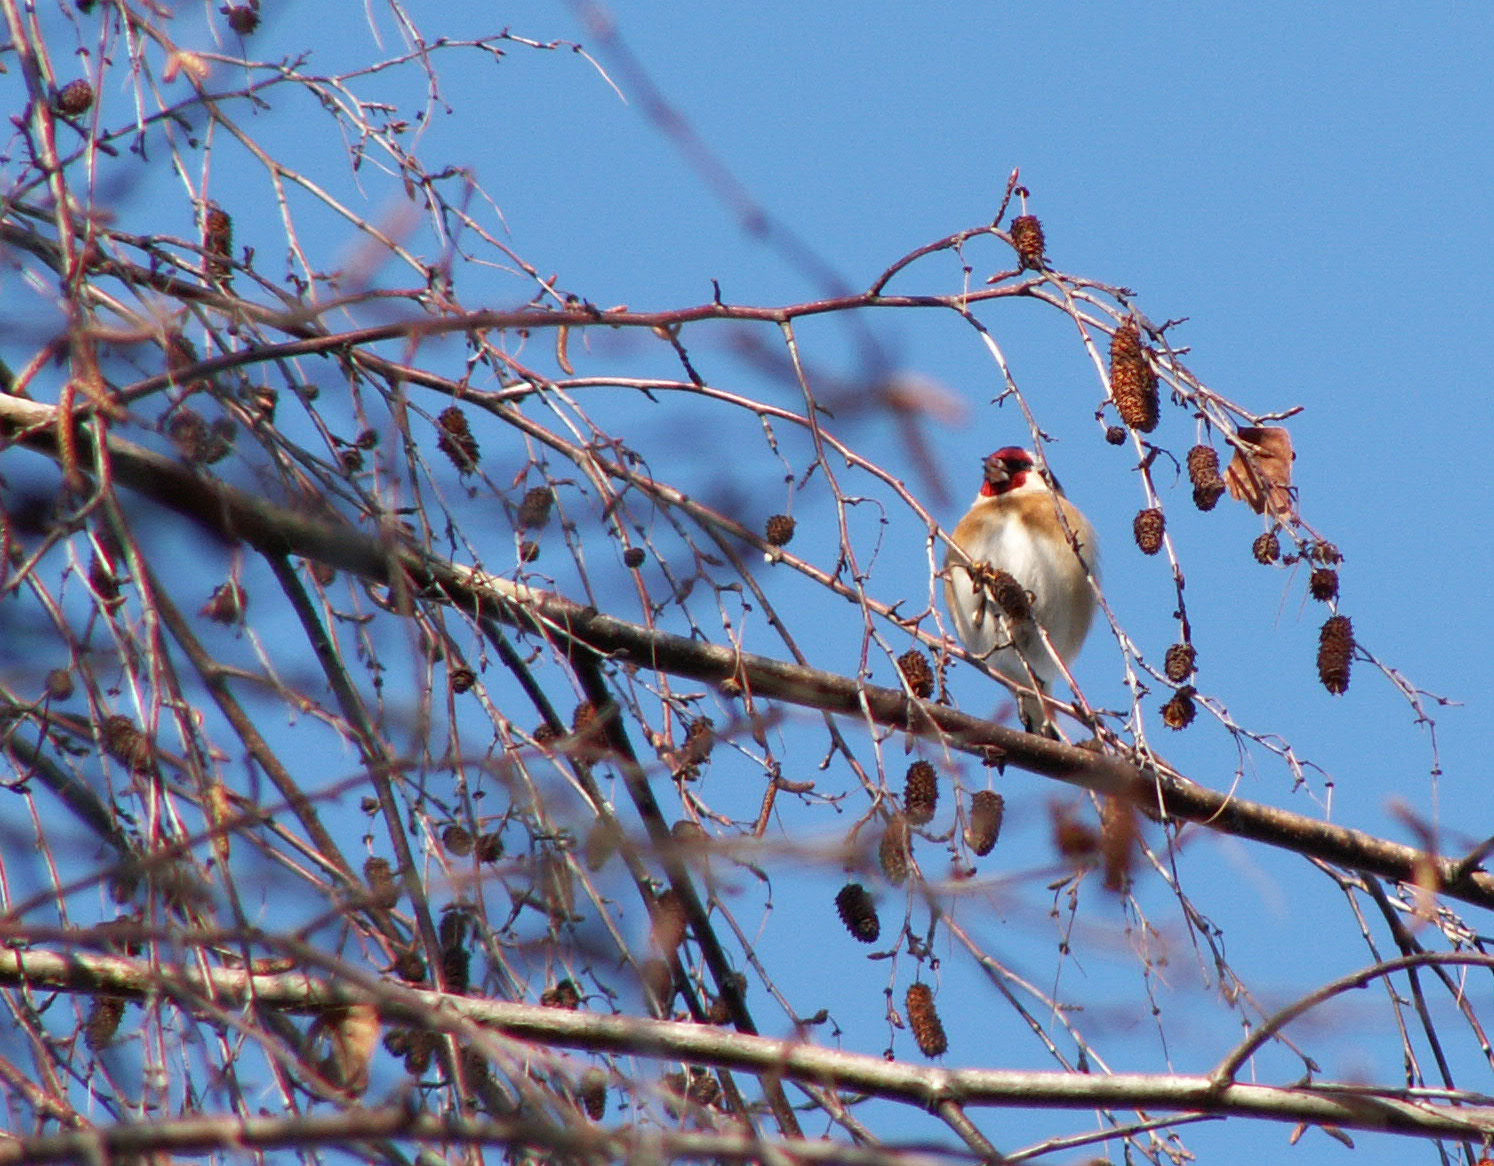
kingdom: Animalia
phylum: Chordata
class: Aves
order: Passeriformes
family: Fringillidae
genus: Carduelis
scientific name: Carduelis carduelis
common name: European goldfinch
